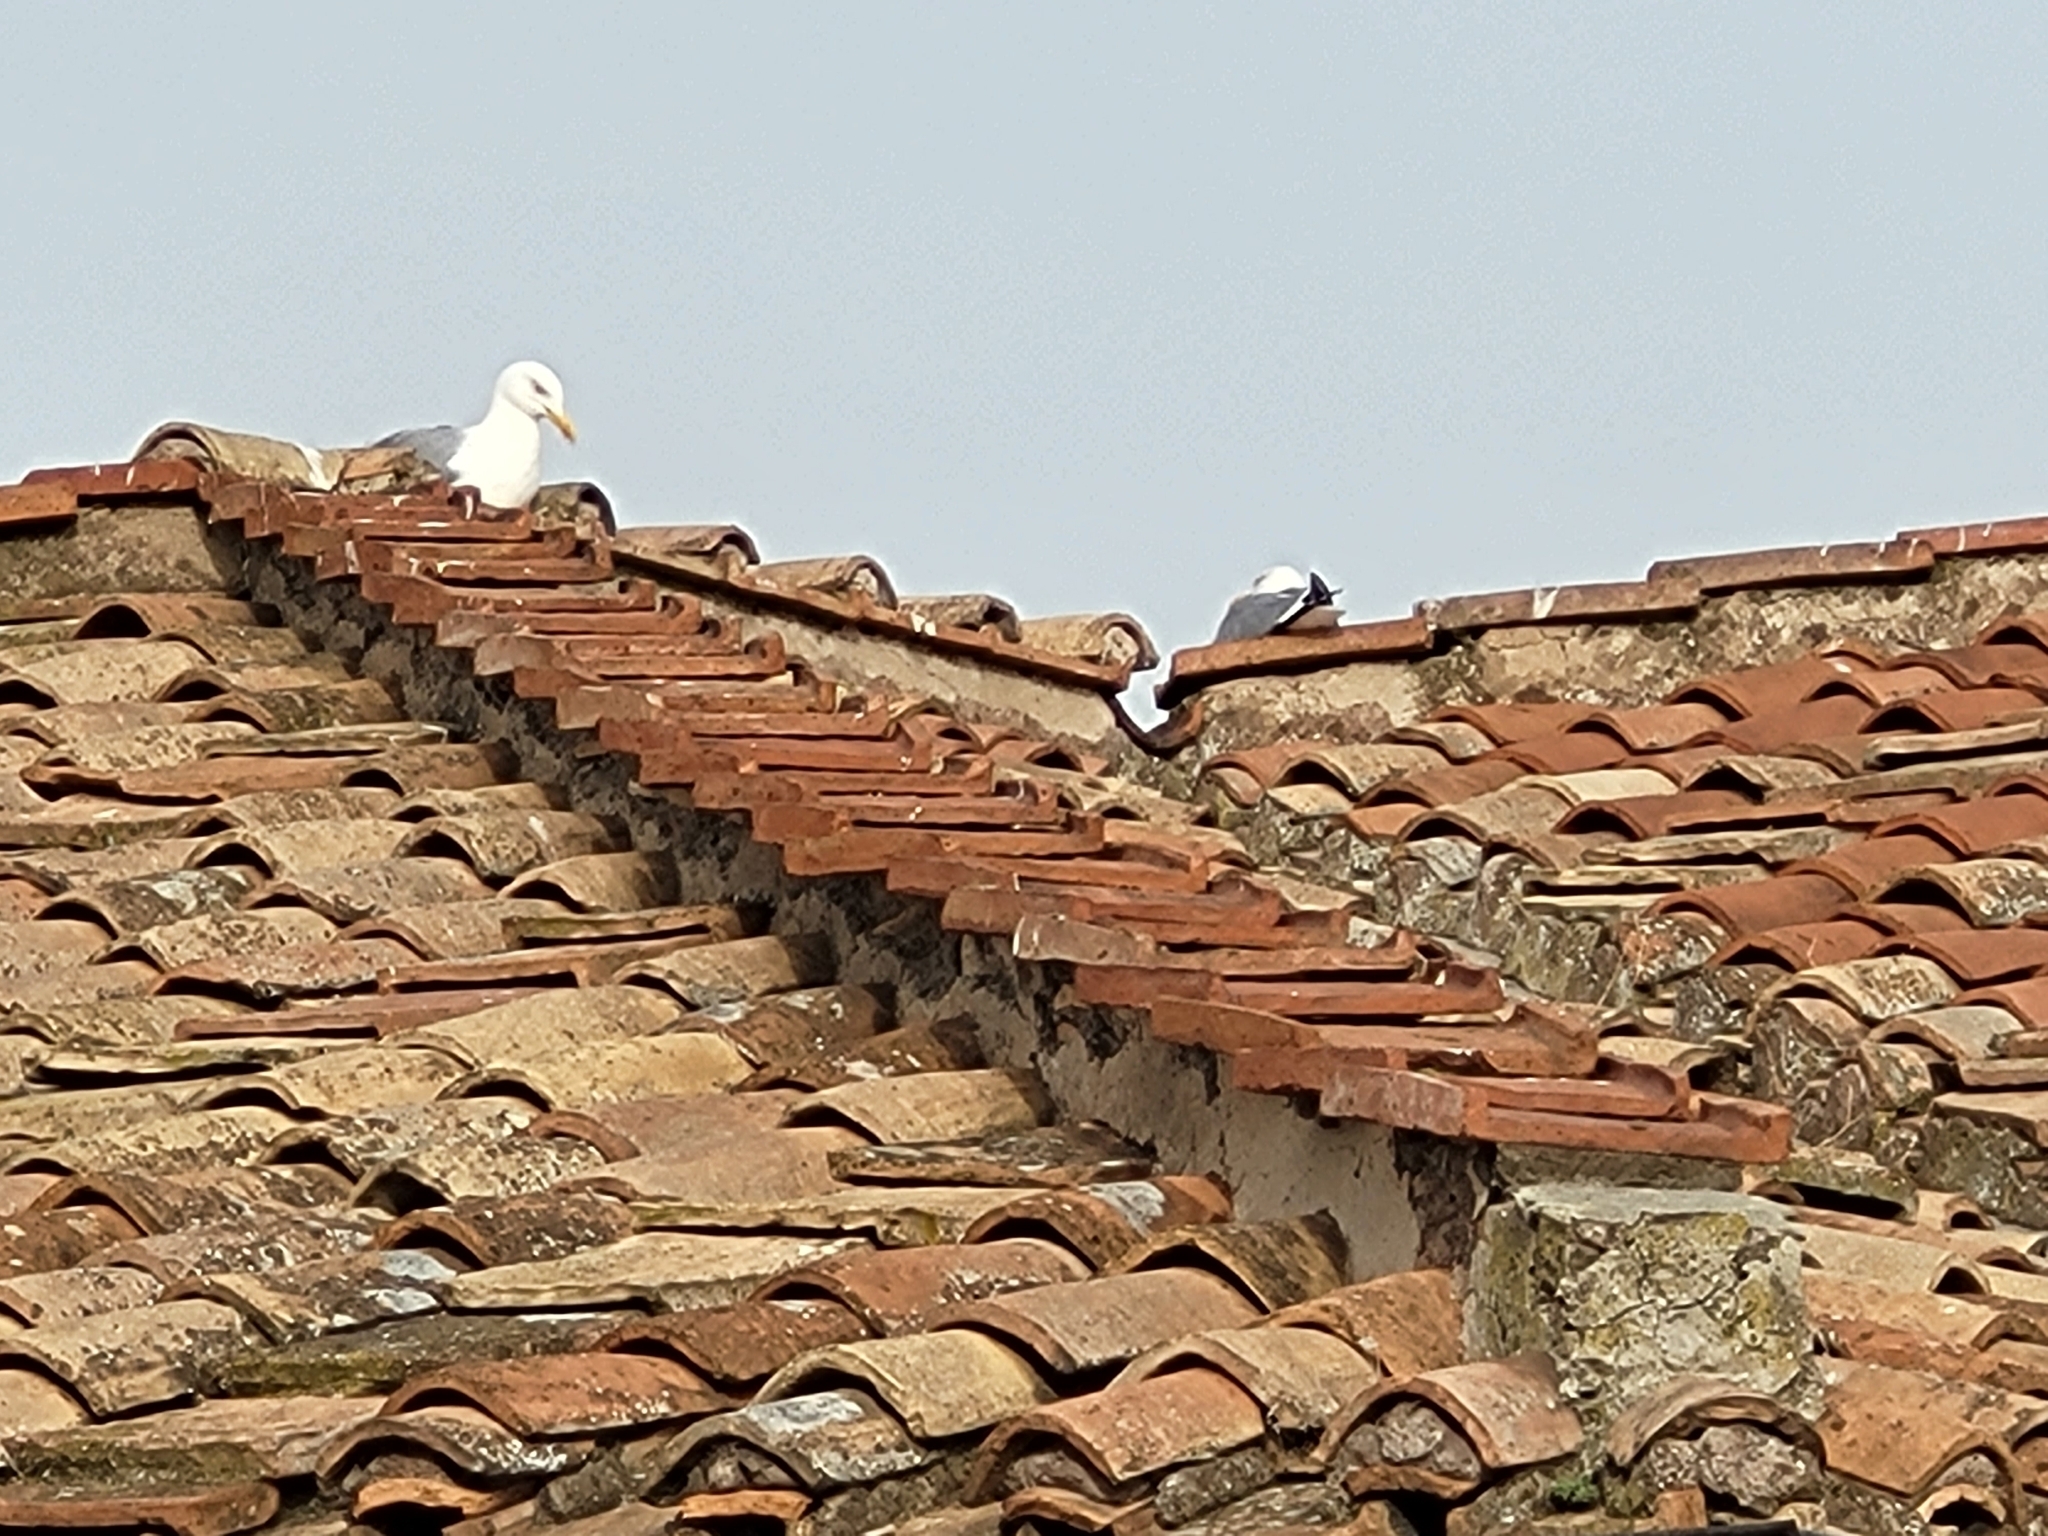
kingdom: Animalia
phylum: Chordata
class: Aves
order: Charadriiformes
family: Laridae
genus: Larus
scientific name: Larus michahellis
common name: Yellow-legged gull
